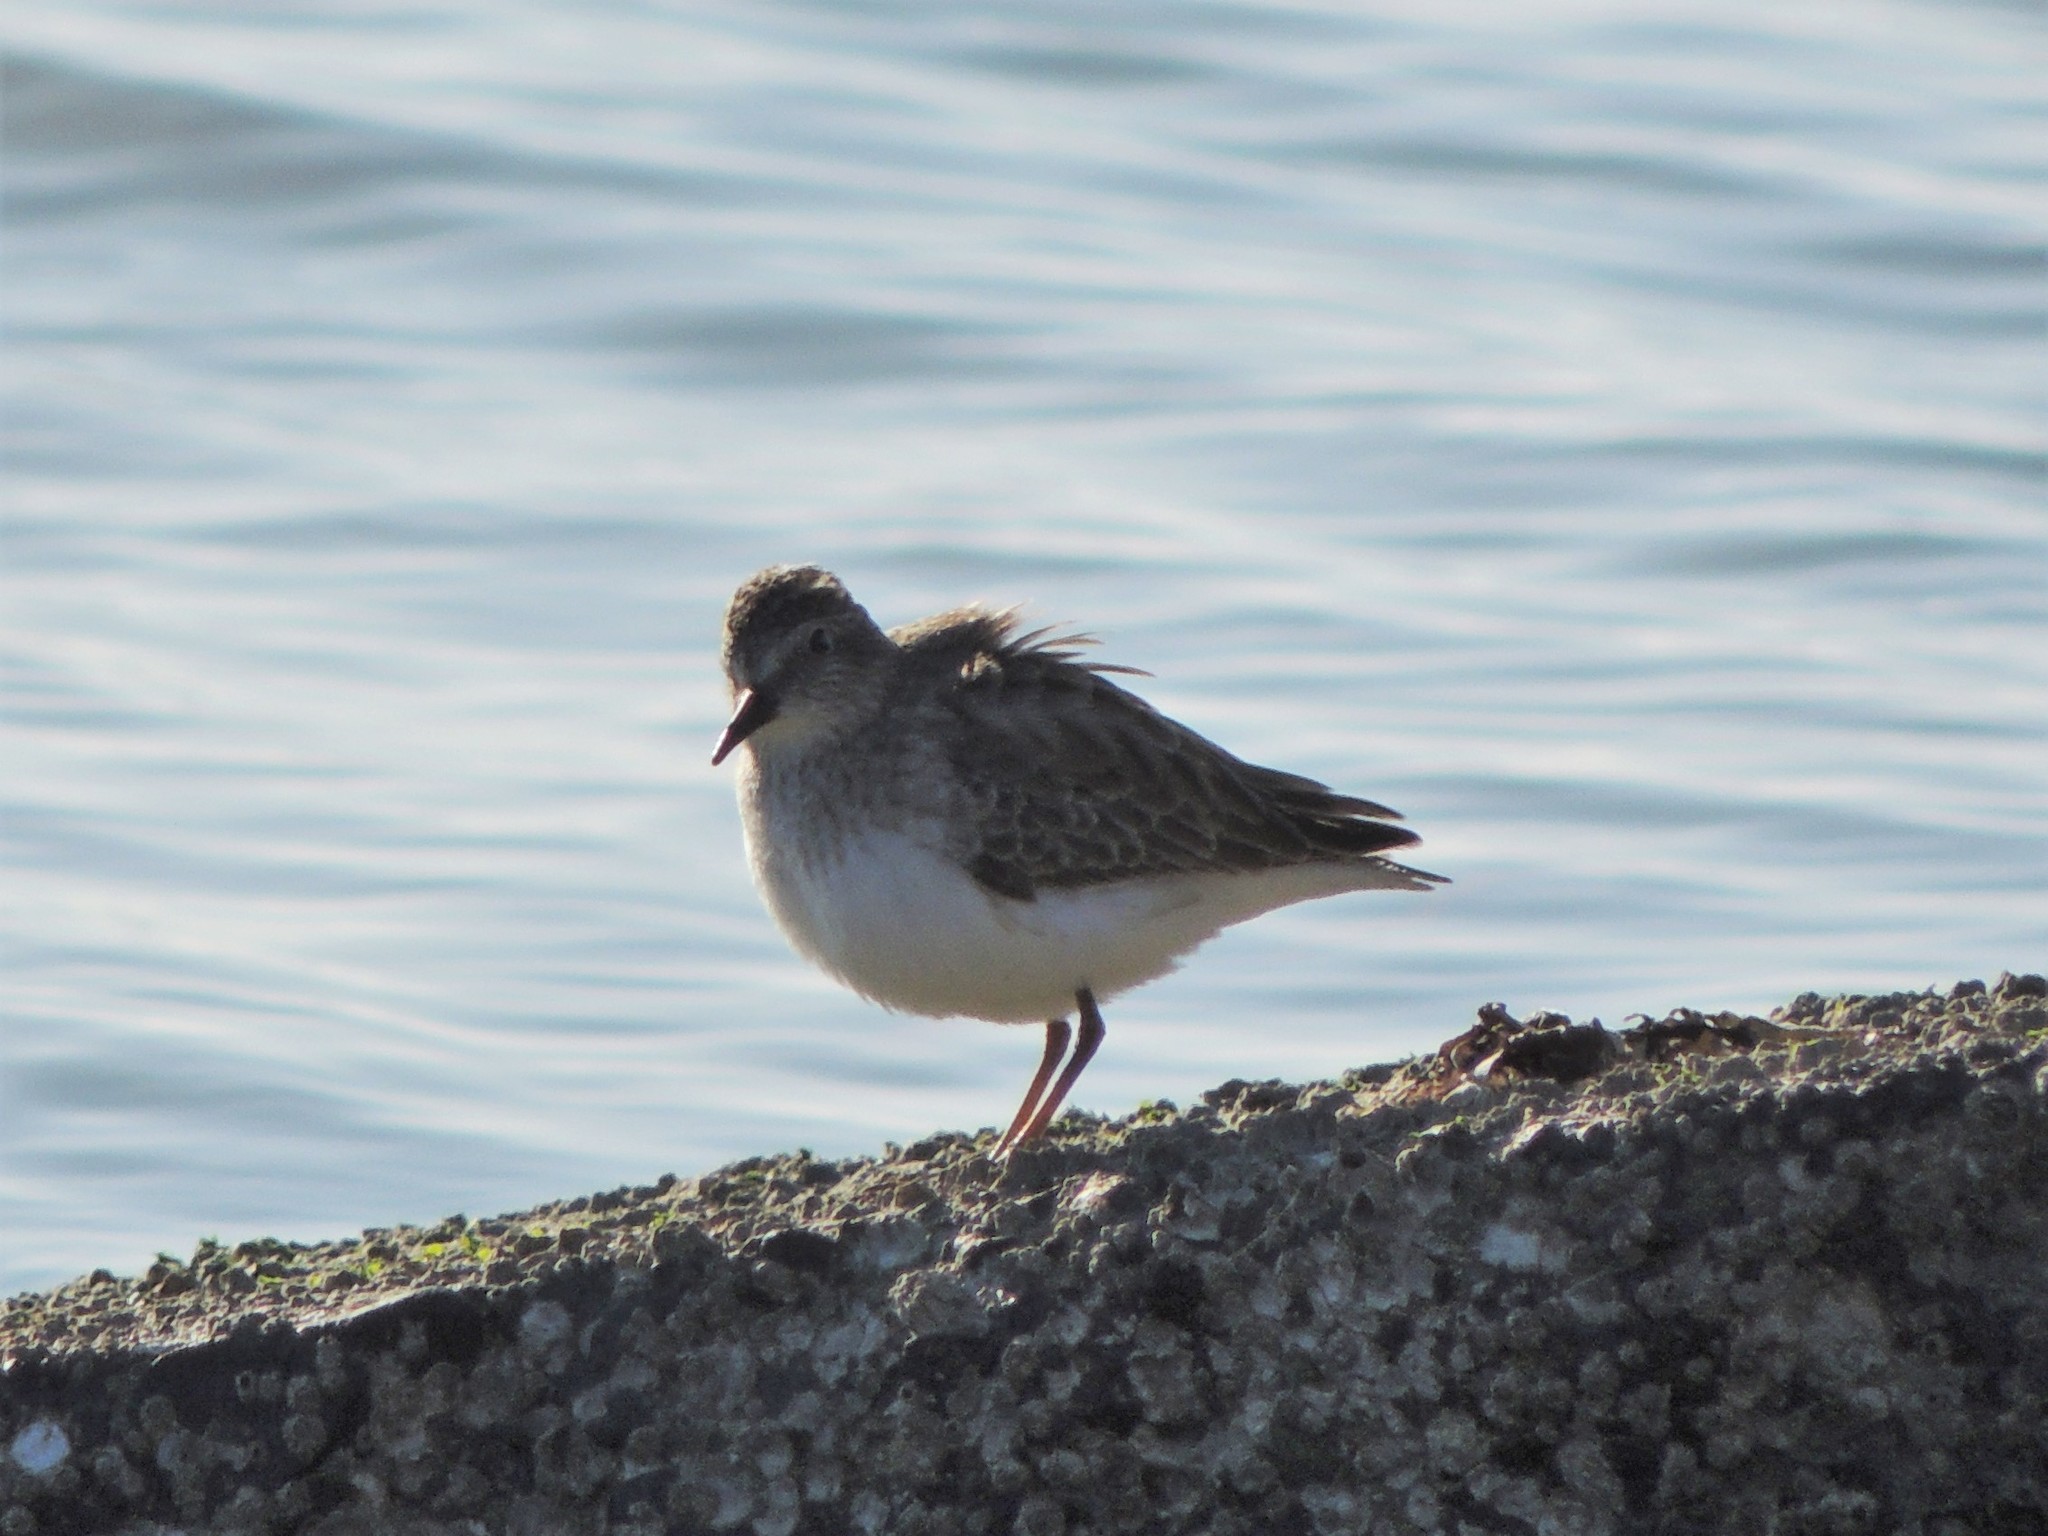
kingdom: Animalia
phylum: Chordata
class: Aves
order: Charadriiformes
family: Scolopacidae
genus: Calidris
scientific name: Calidris minutilla
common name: Least sandpiper
